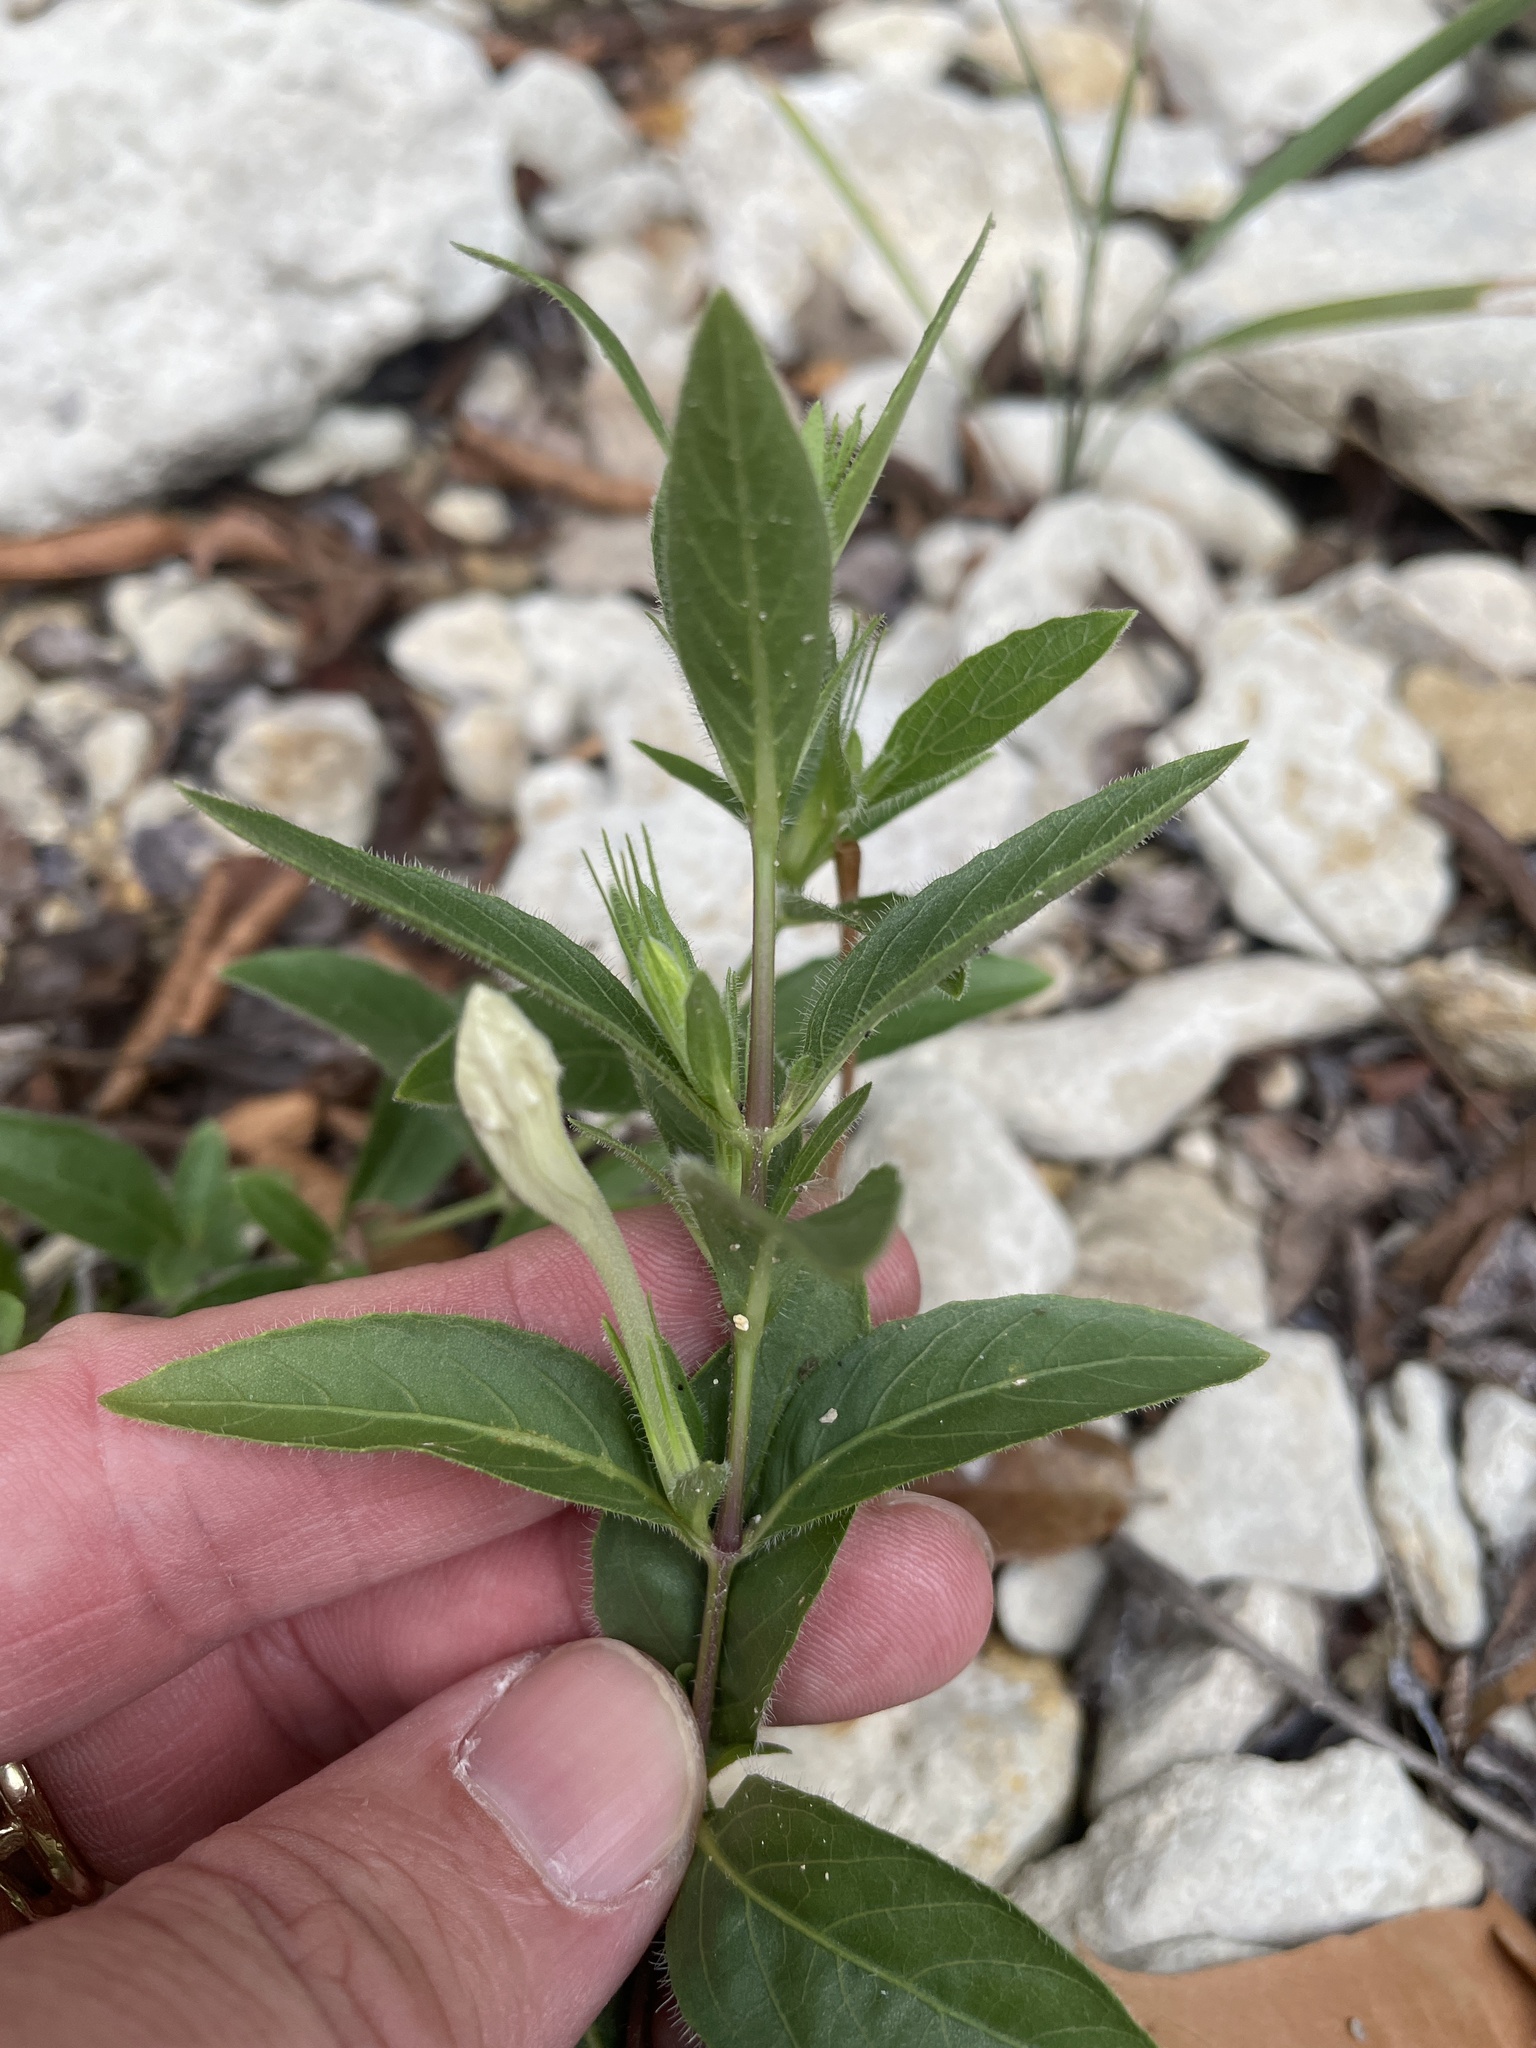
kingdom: Plantae
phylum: Tracheophyta
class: Magnoliopsida
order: Lamiales
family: Acanthaceae
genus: Ruellia
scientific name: Ruellia humilis
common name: Fringe-leaf ruellia
